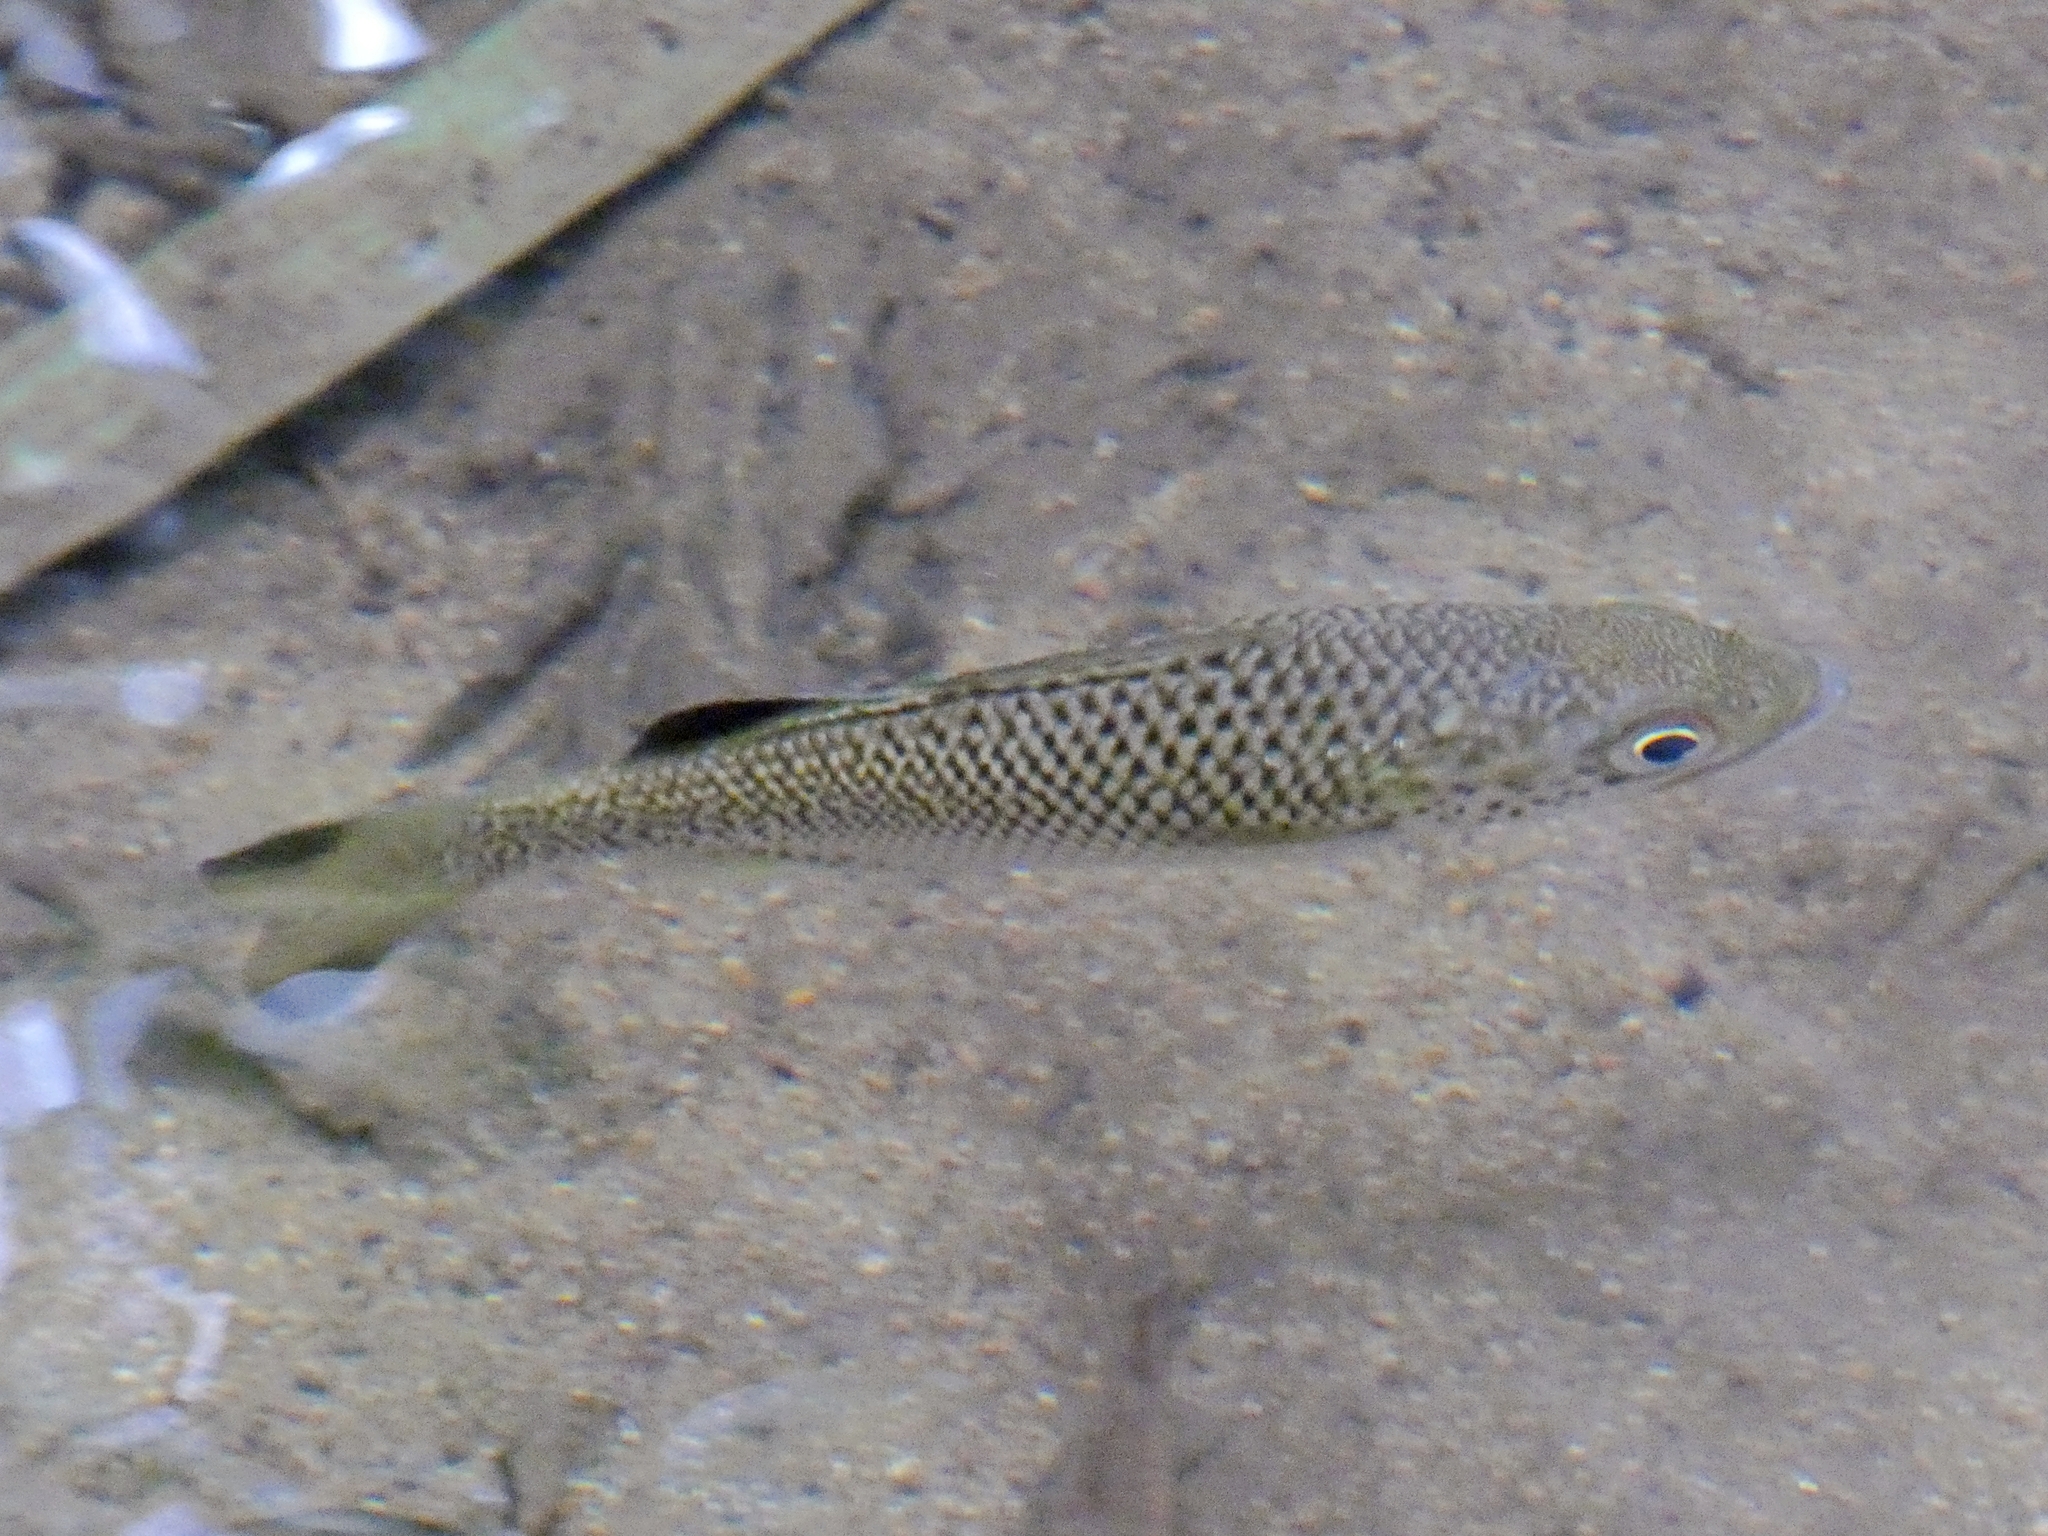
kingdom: Animalia
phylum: Chordata
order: Perciformes
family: Kuhliidae
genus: Kuhlia
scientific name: Kuhlia rupestris
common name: Rock flagtail
